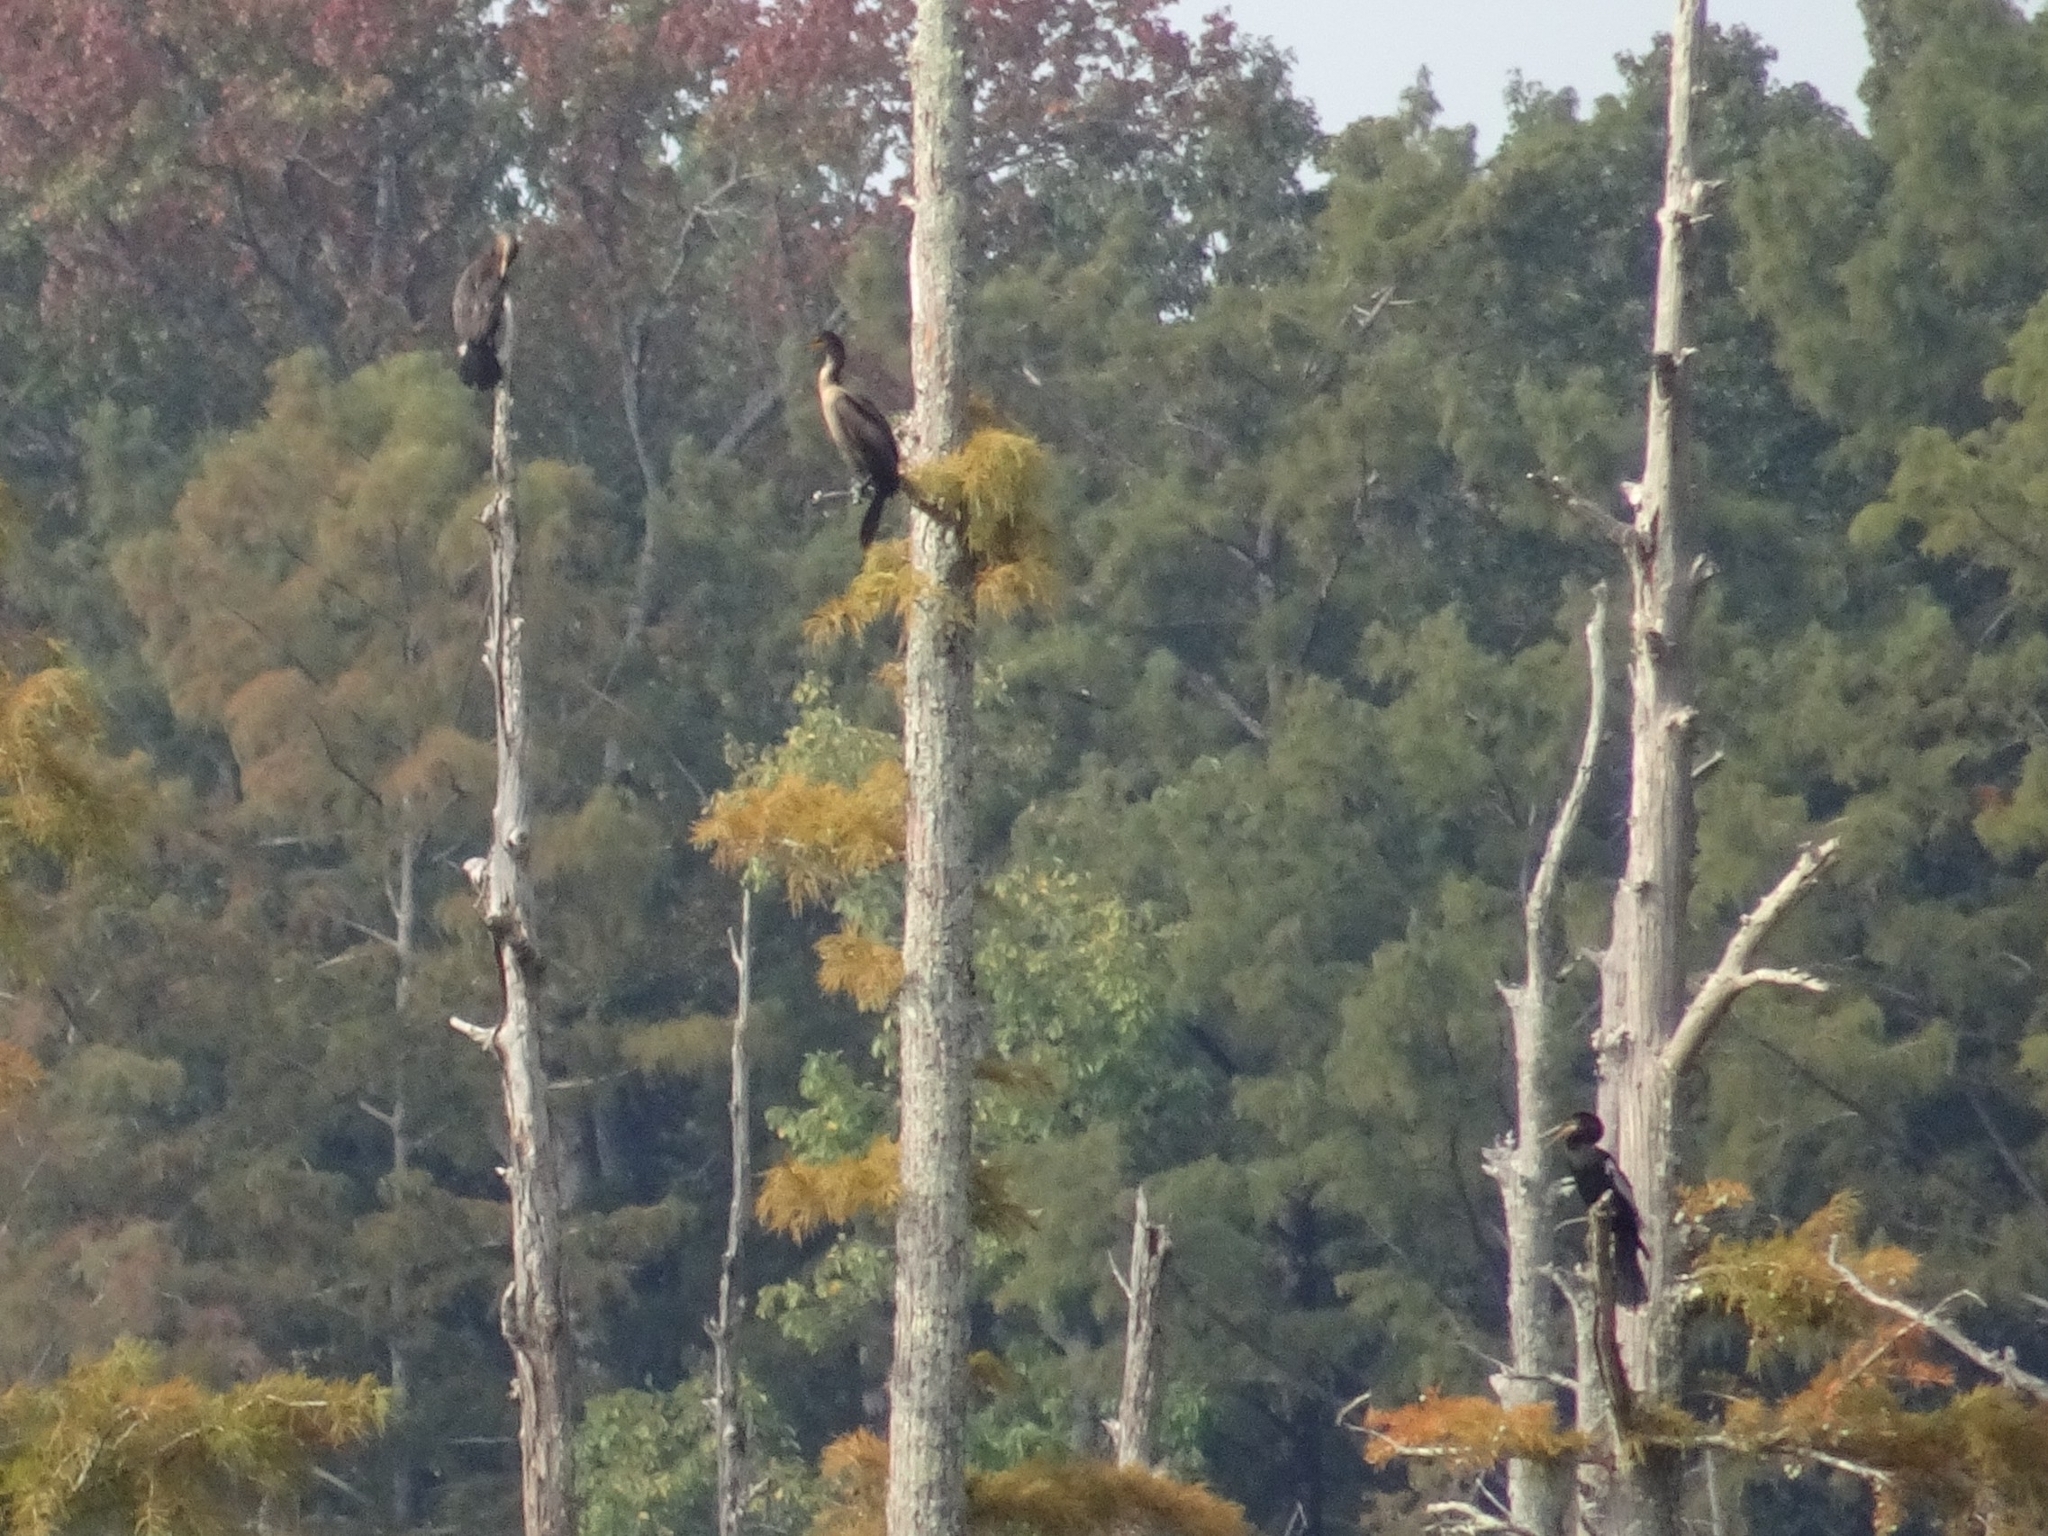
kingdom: Animalia
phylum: Chordata
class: Aves
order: Suliformes
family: Anhingidae
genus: Anhinga
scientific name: Anhinga anhinga
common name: Anhinga
